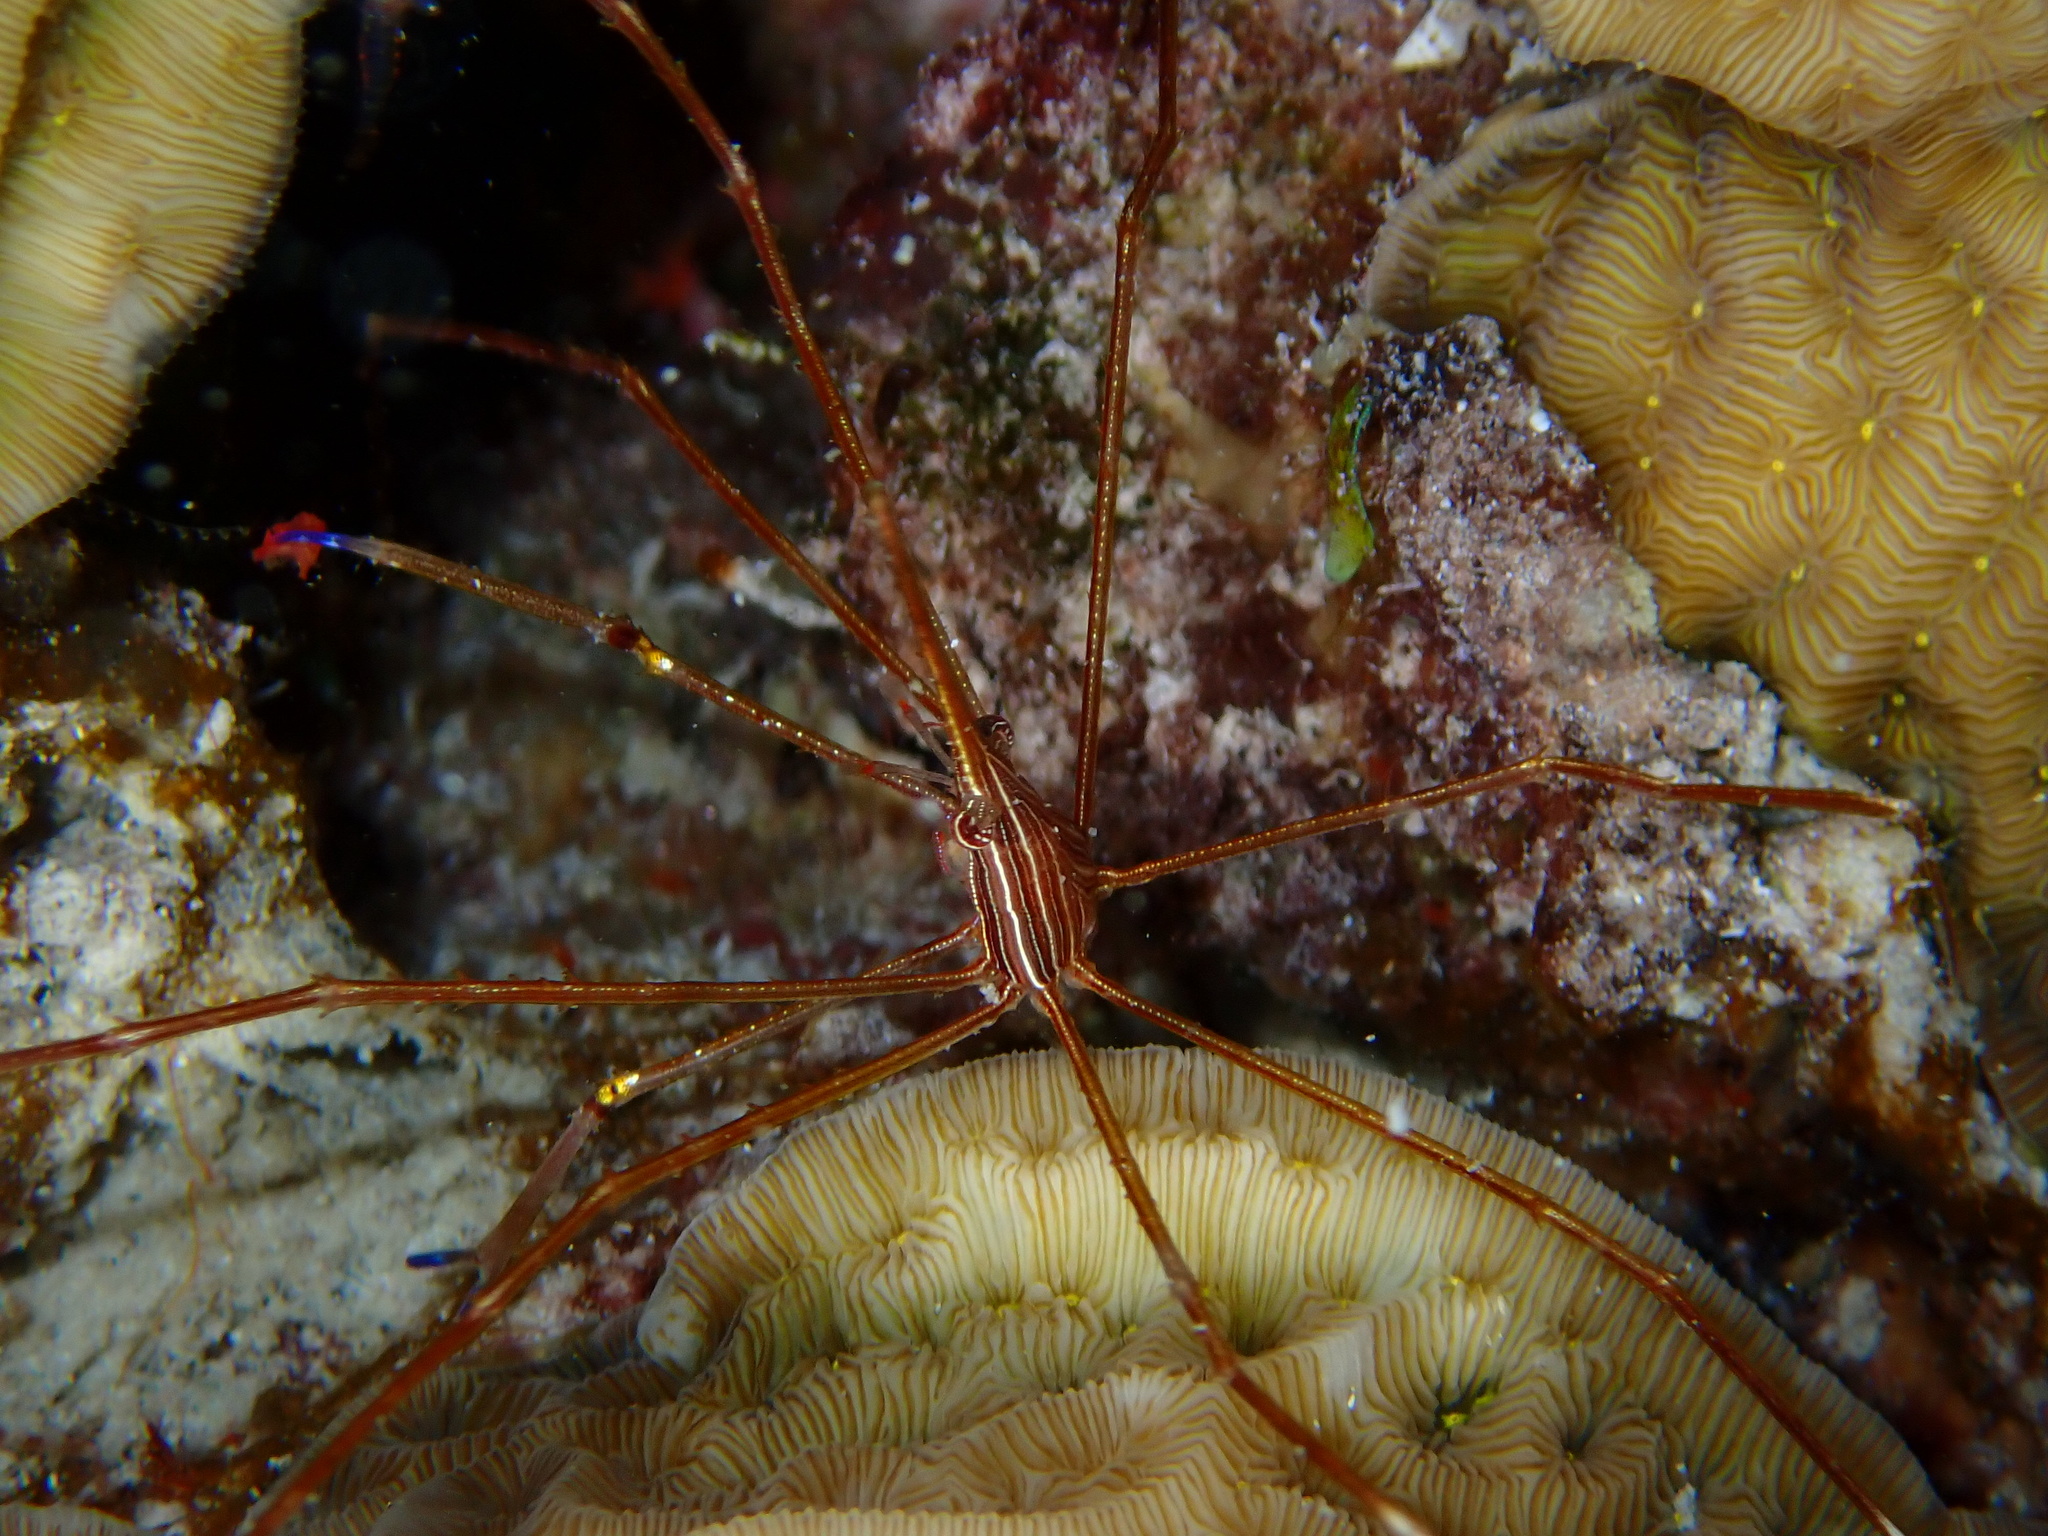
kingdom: Animalia
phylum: Arthropoda
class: Malacostraca
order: Decapoda
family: Inachoididae
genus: Stenorhynchus
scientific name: Stenorhynchus seticornis
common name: Arrow crab
